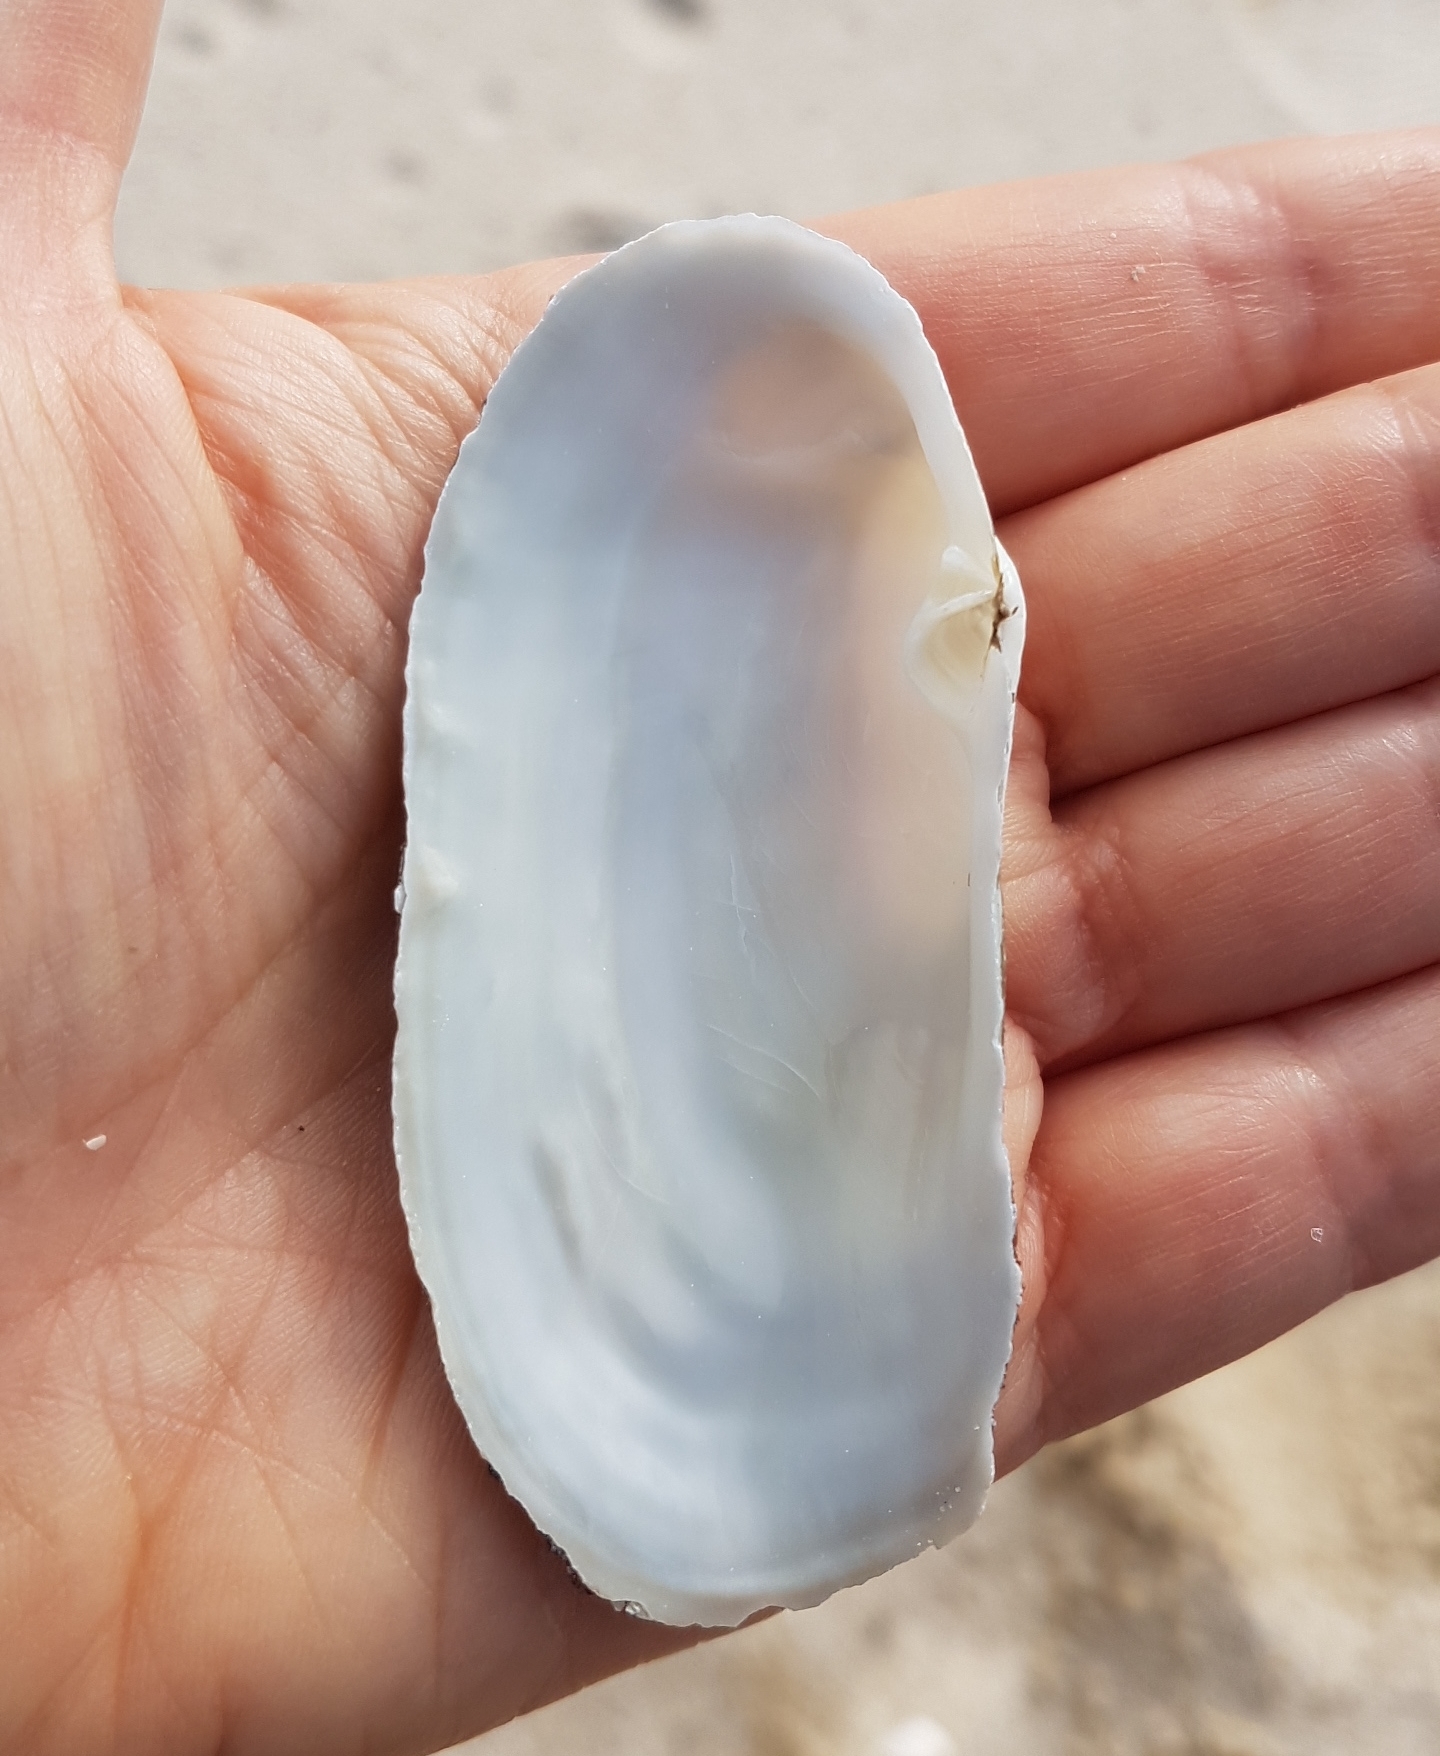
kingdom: Animalia
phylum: Mollusca
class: Bivalvia
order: Venerida
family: Mactridae
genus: Lutraria
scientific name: Lutraria oblonga
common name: Oblong otter clam
